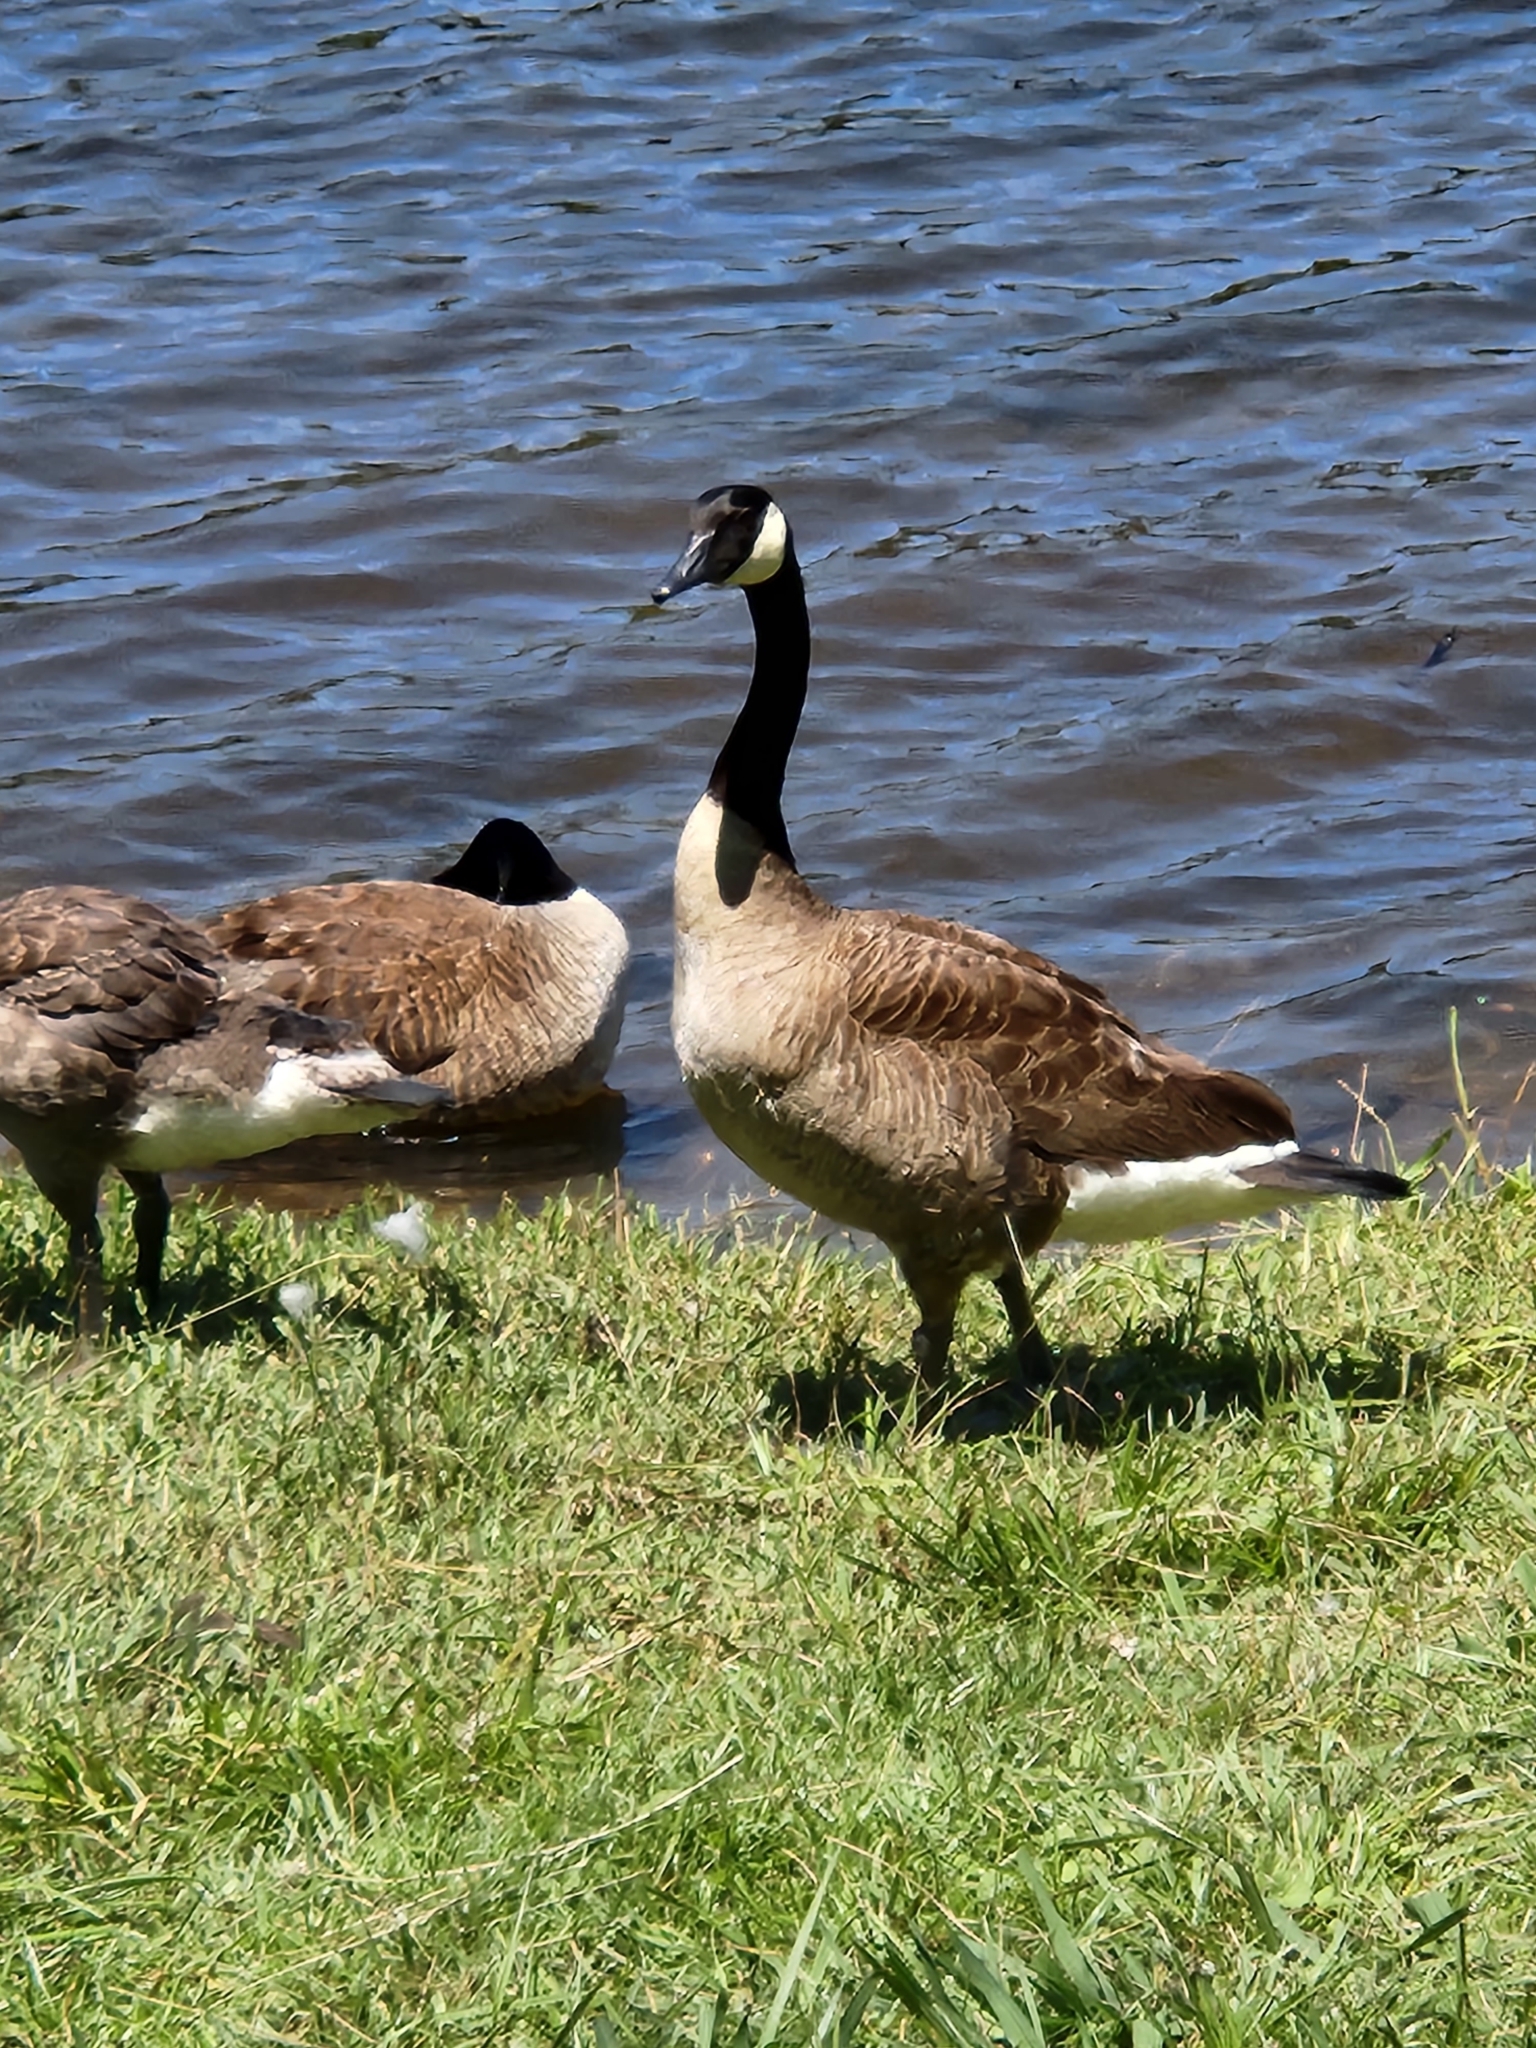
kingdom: Animalia
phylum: Chordata
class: Aves
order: Anseriformes
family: Anatidae
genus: Branta
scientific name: Branta canadensis
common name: Canada goose
